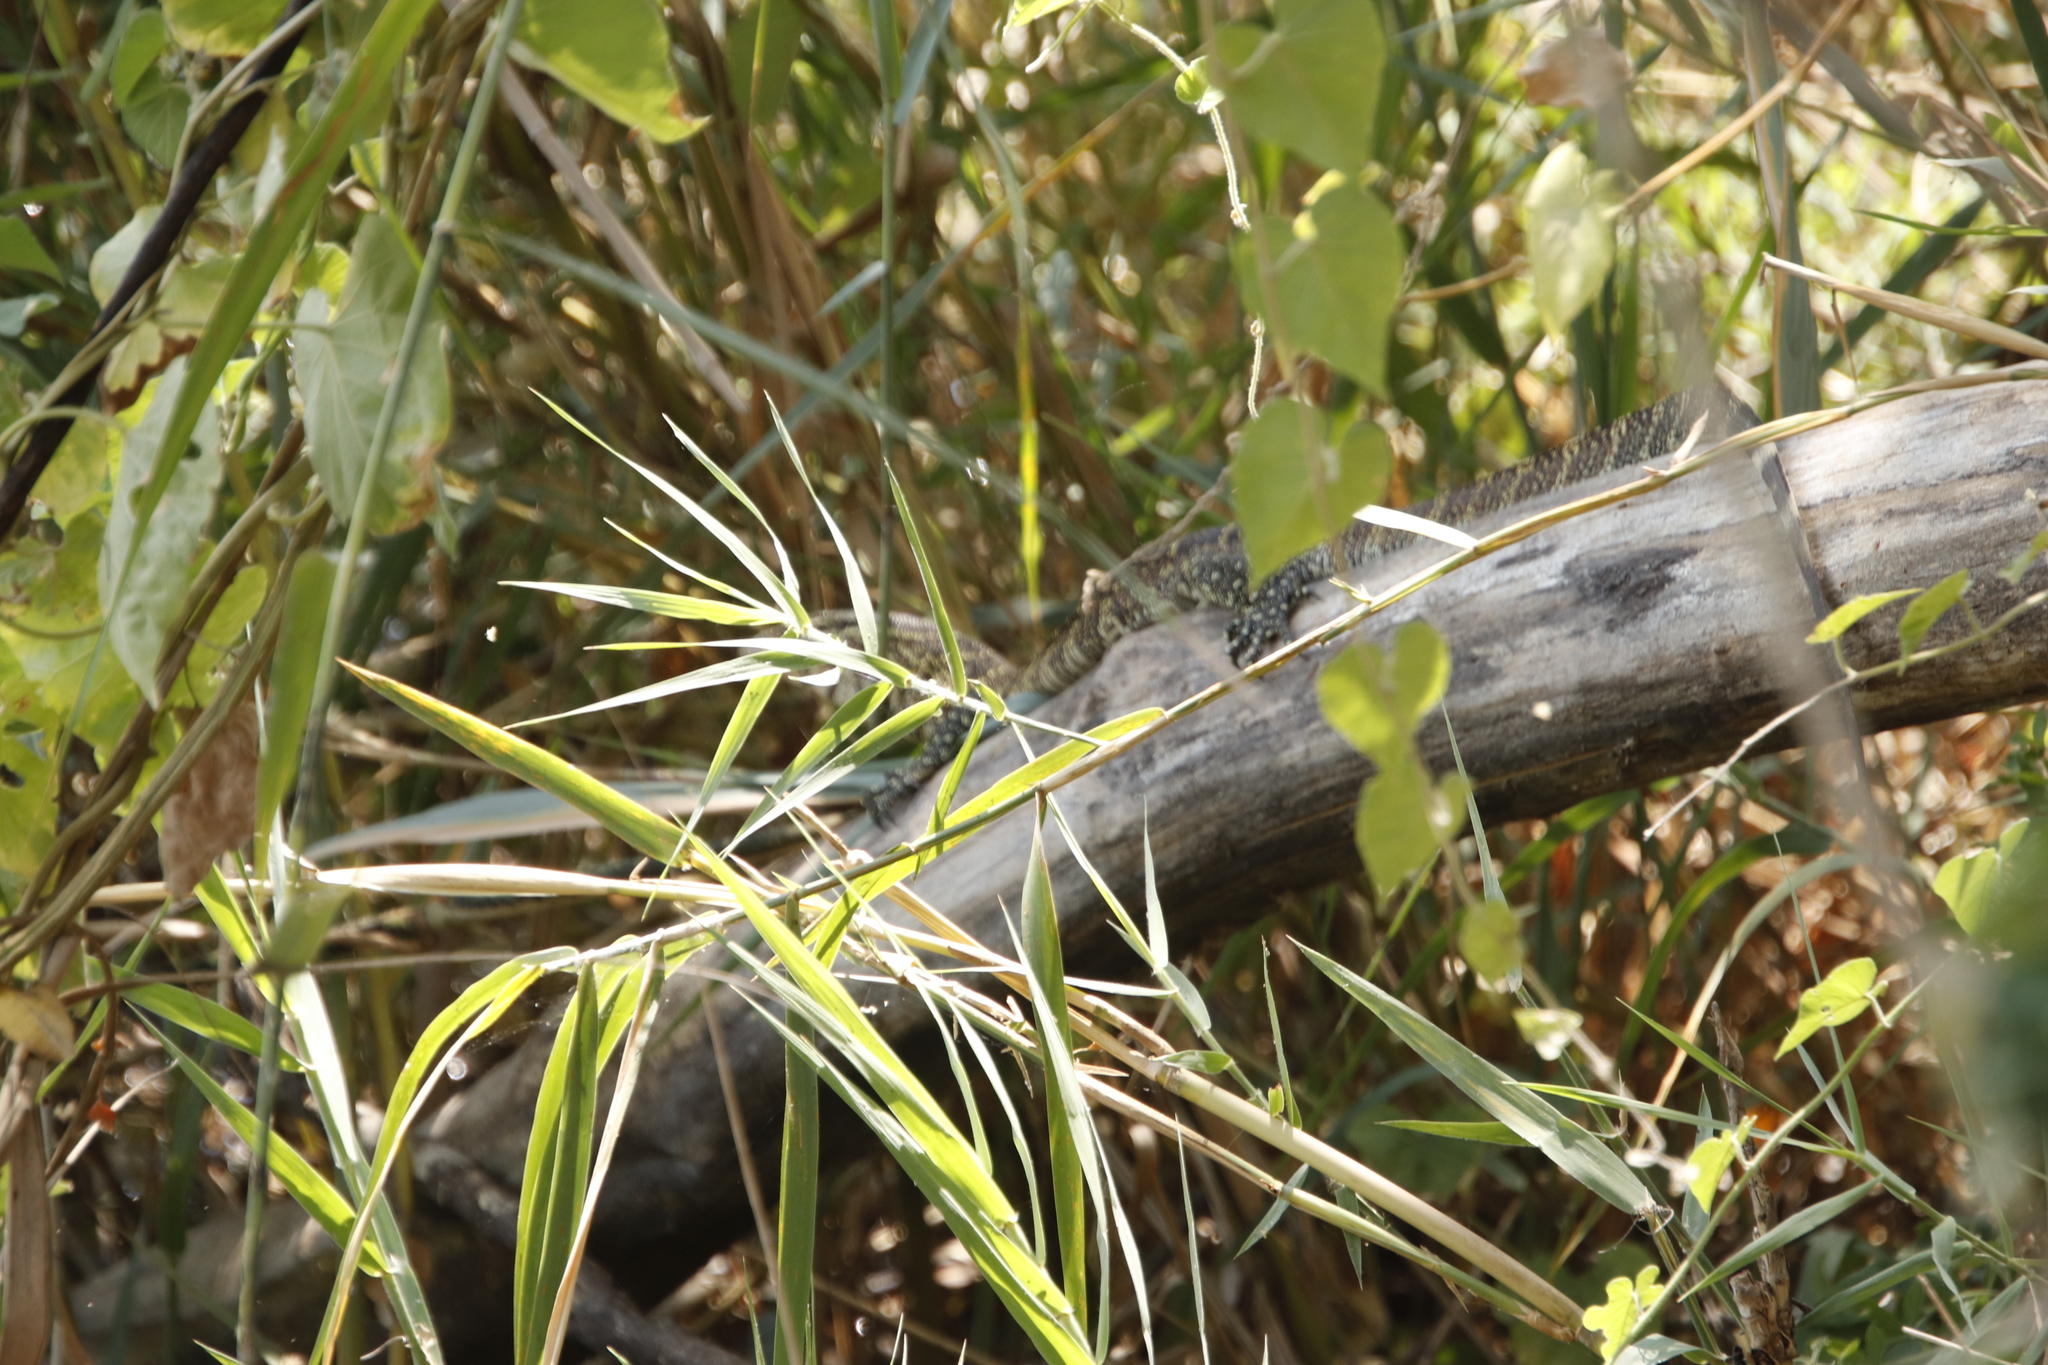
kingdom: Animalia
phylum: Chordata
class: Squamata
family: Varanidae
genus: Varanus
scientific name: Varanus niloticus
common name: Nile monitor
